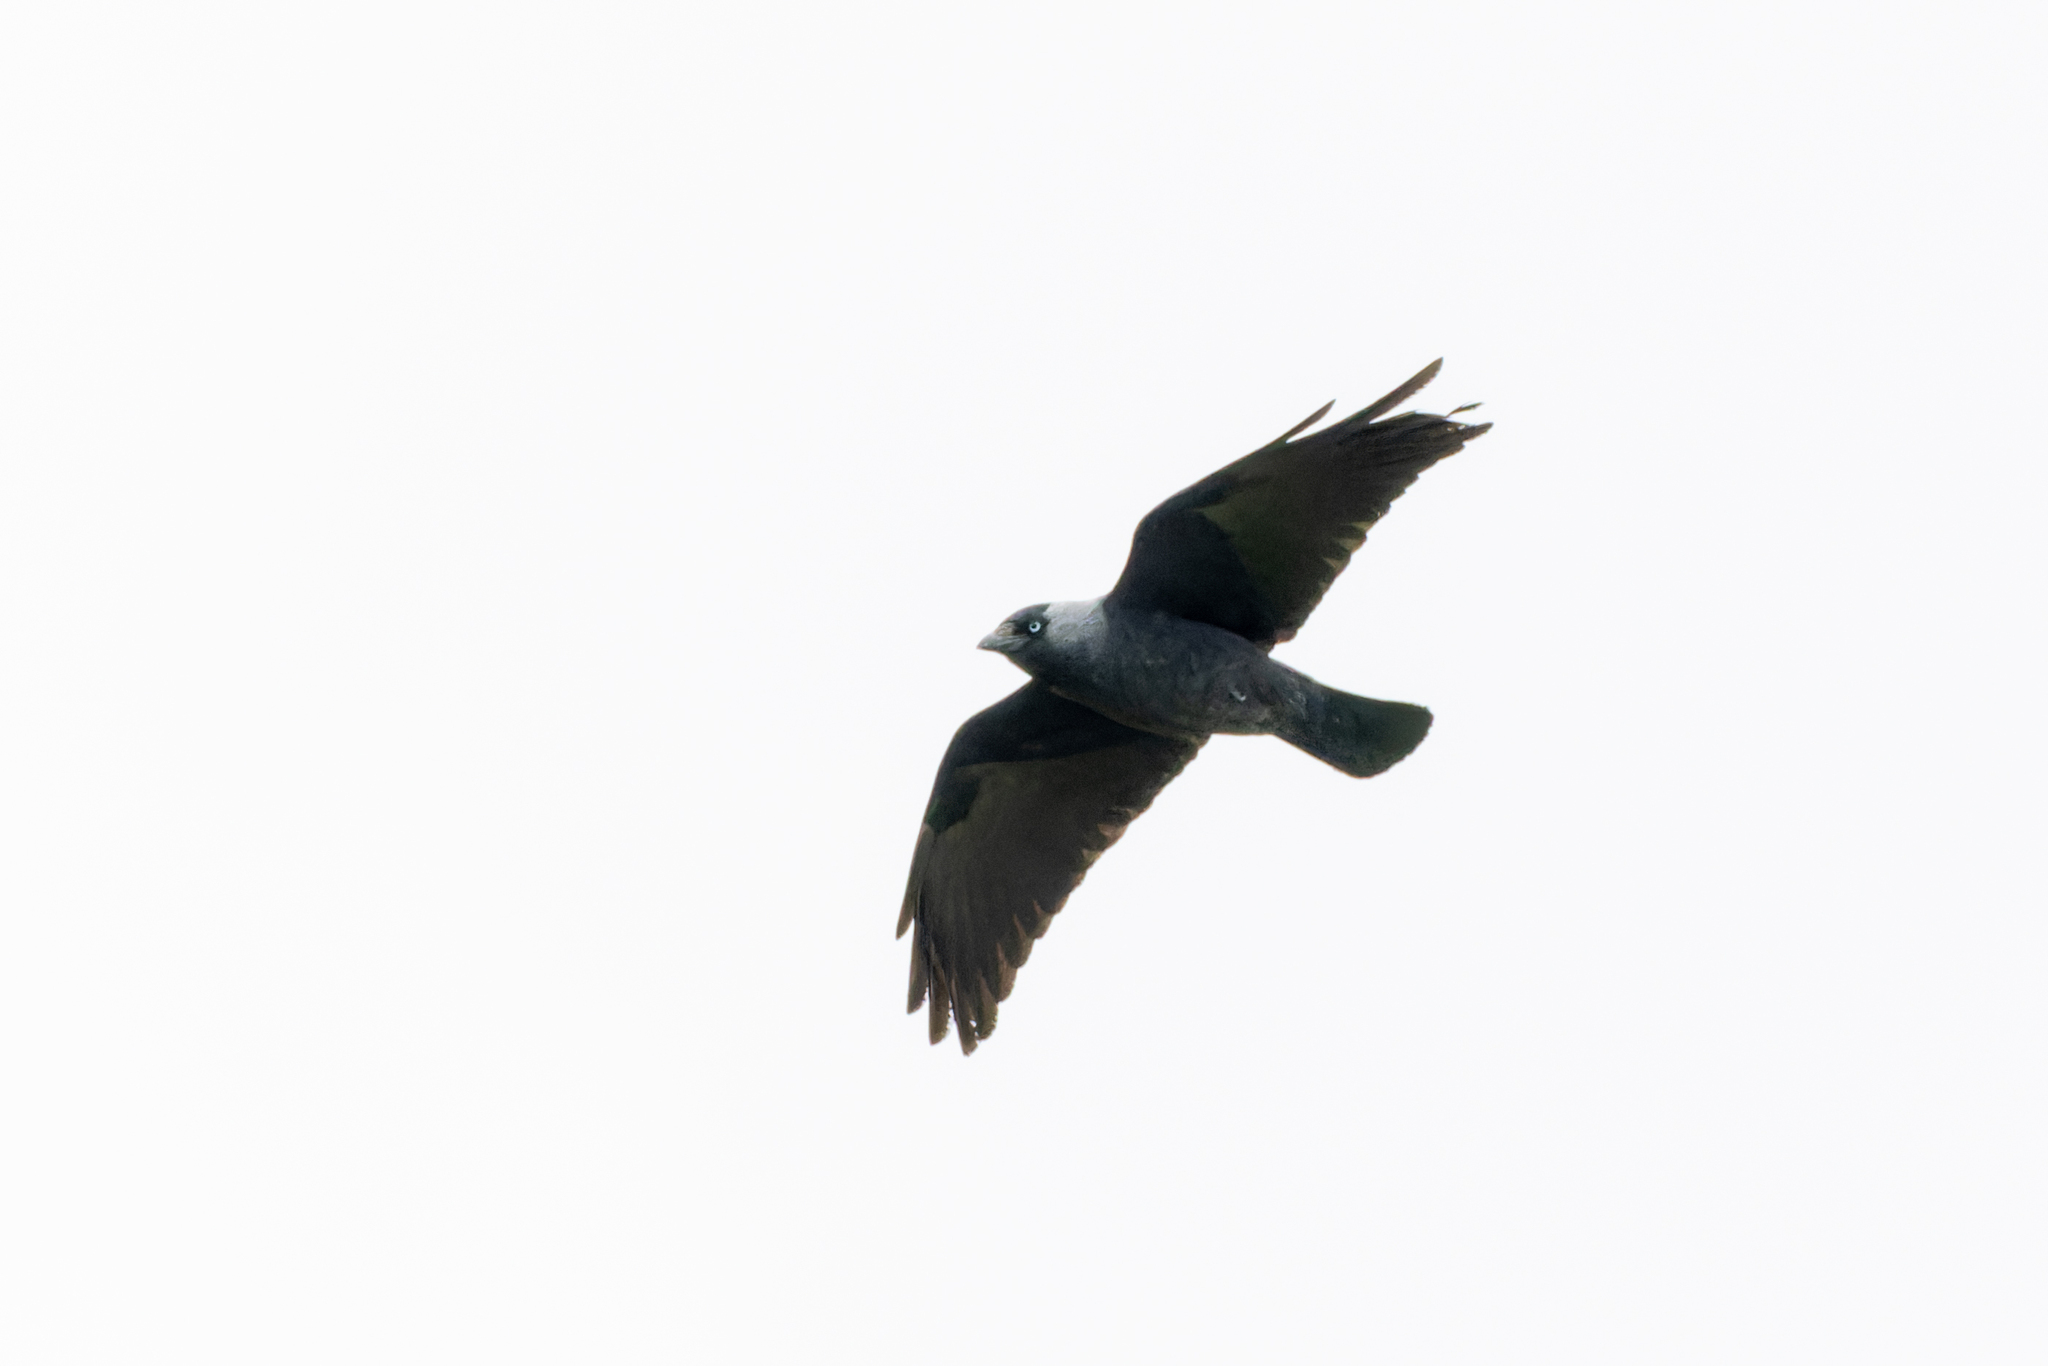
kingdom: Animalia
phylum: Chordata
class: Aves
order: Passeriformes
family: Corvidae
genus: Coloeus
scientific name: Coloeus monedula
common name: Western jackdaw
